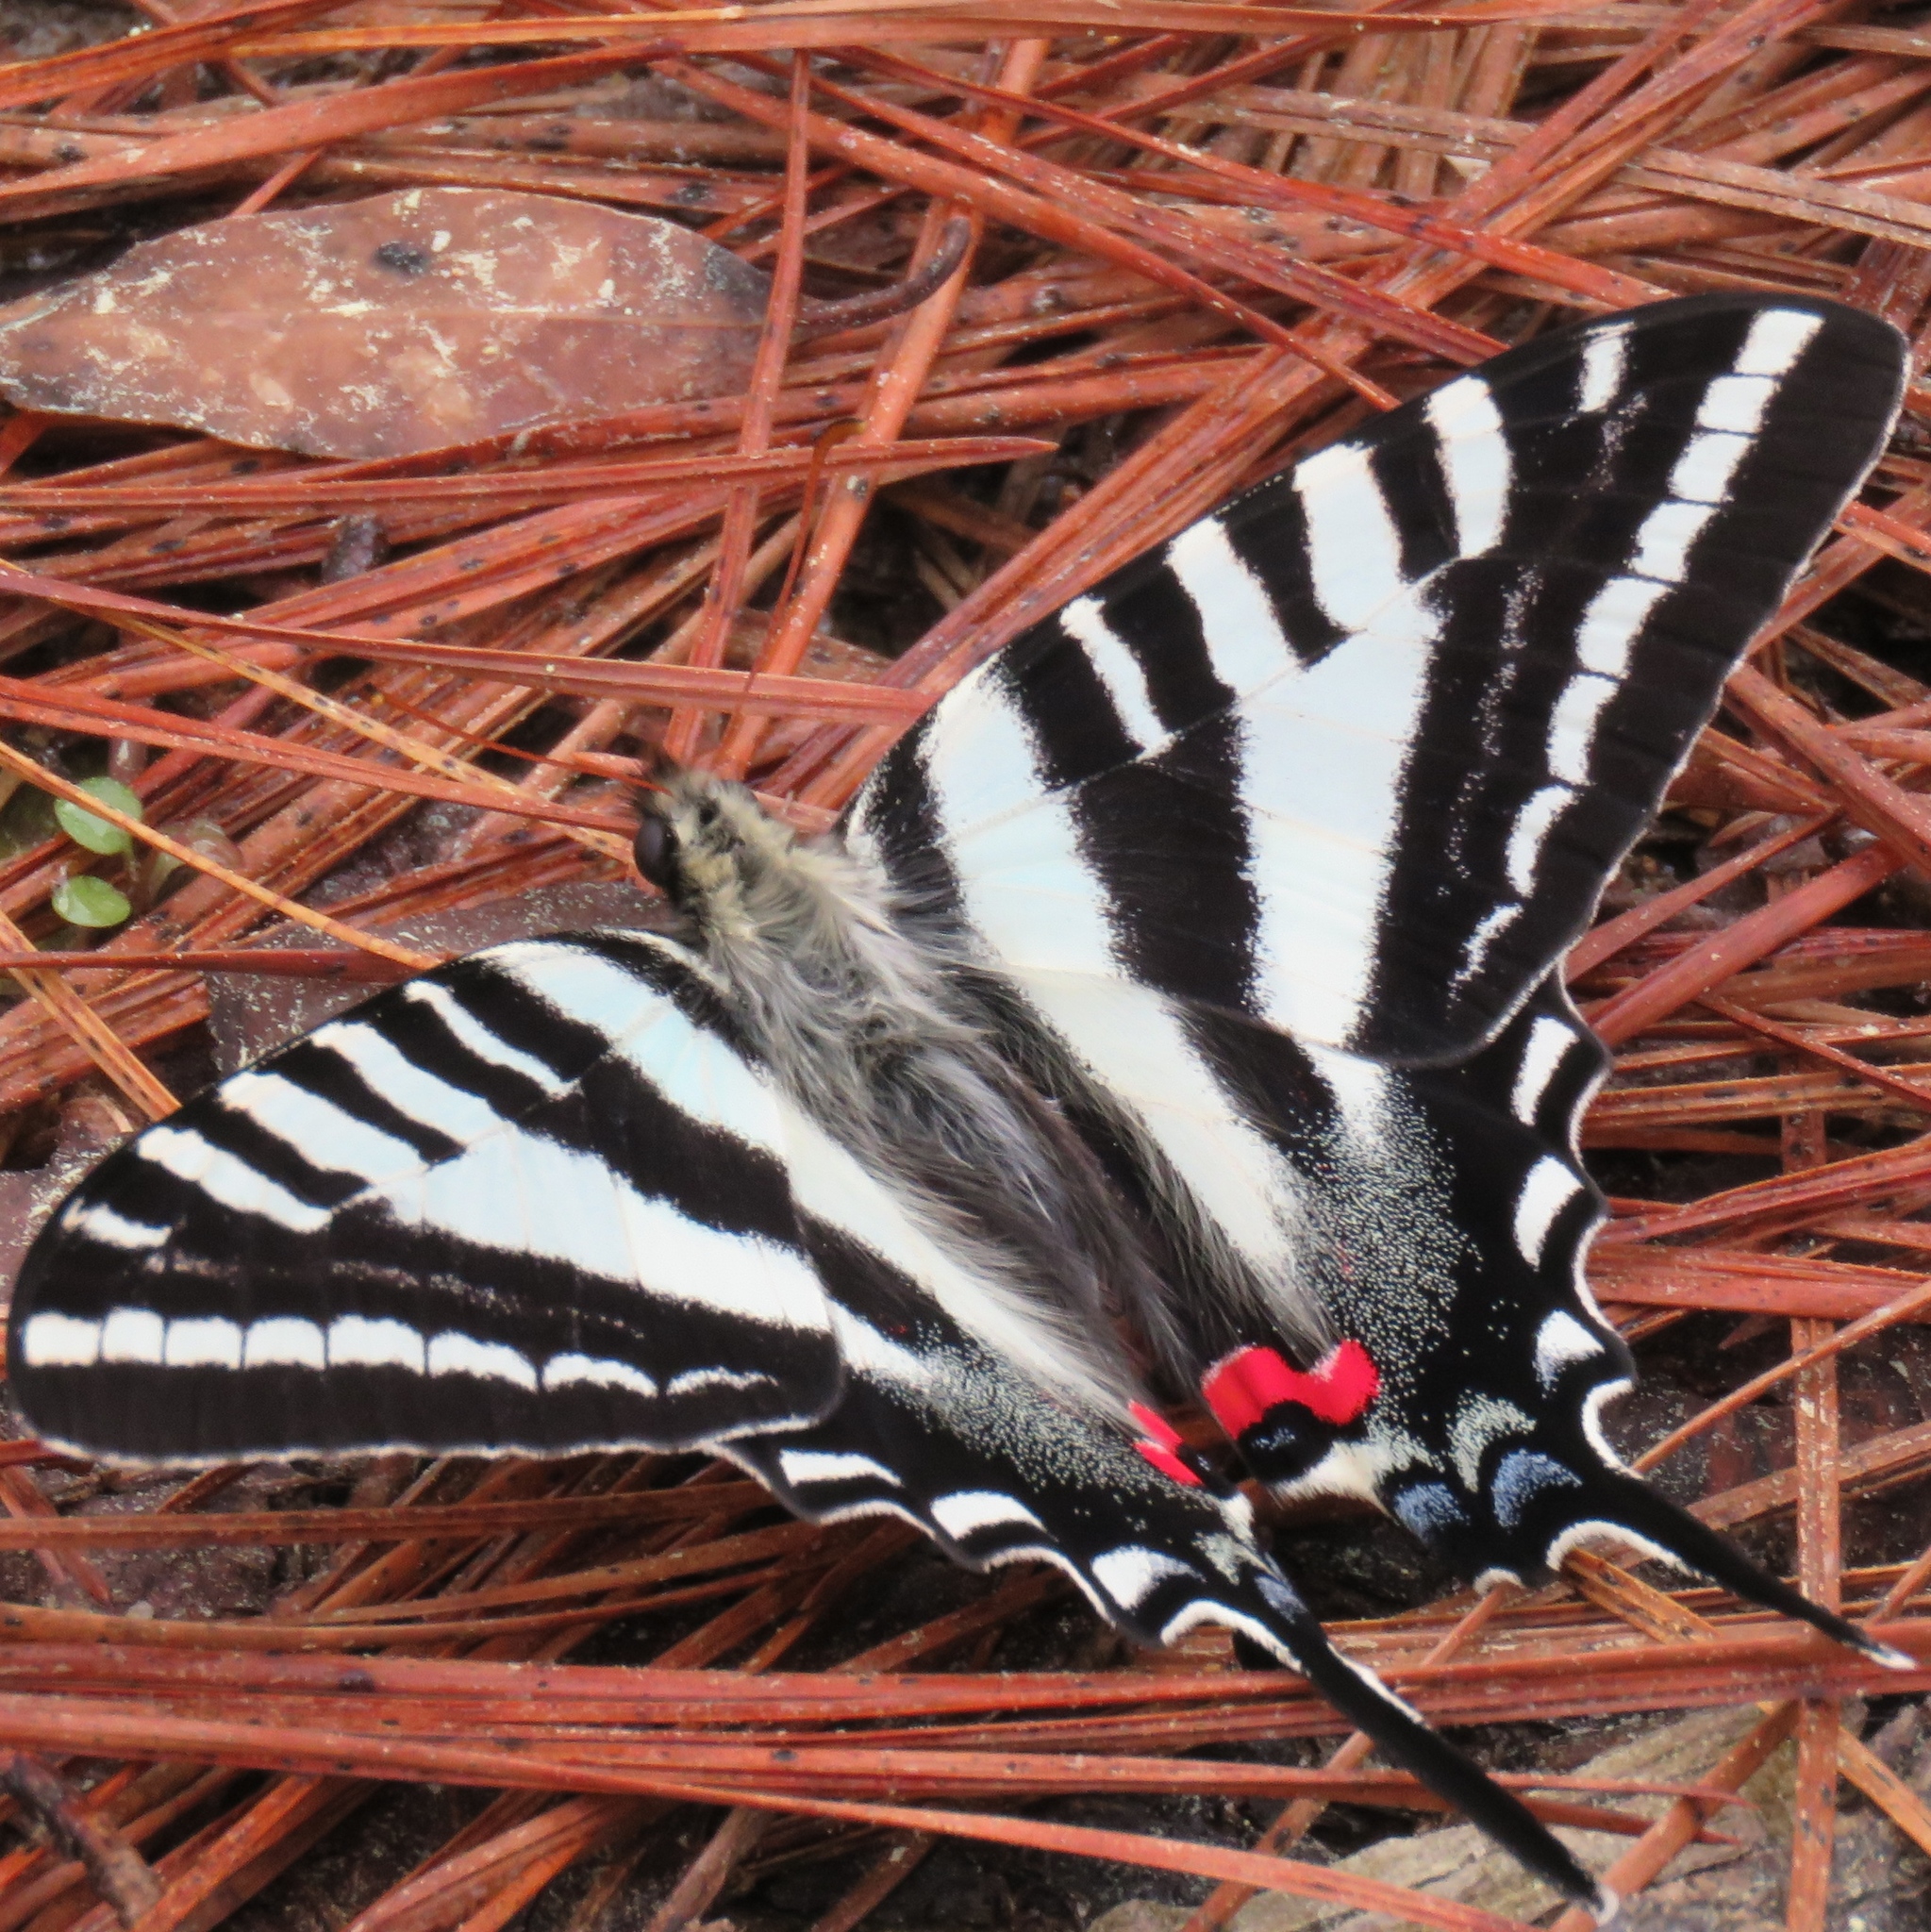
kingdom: Animalia
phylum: Arthropoda
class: Insecta
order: Lepidoptera
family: Papilionidae
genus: Protographium
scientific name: Protographium marcellus
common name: Zebra swallowtail
